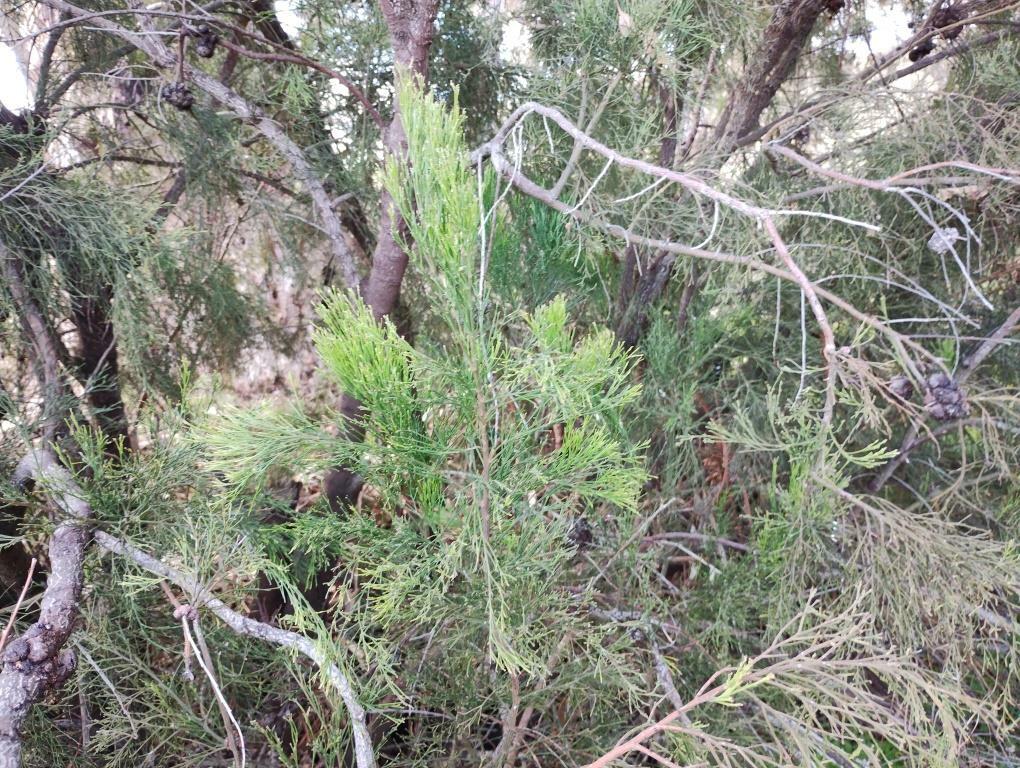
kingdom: Plantae
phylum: Tracheophyta
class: Magnoliopsida
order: Santalales
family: Santalaceae
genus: Exocarpos
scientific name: Exocarpos cupressiformis
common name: Cherry ballart
